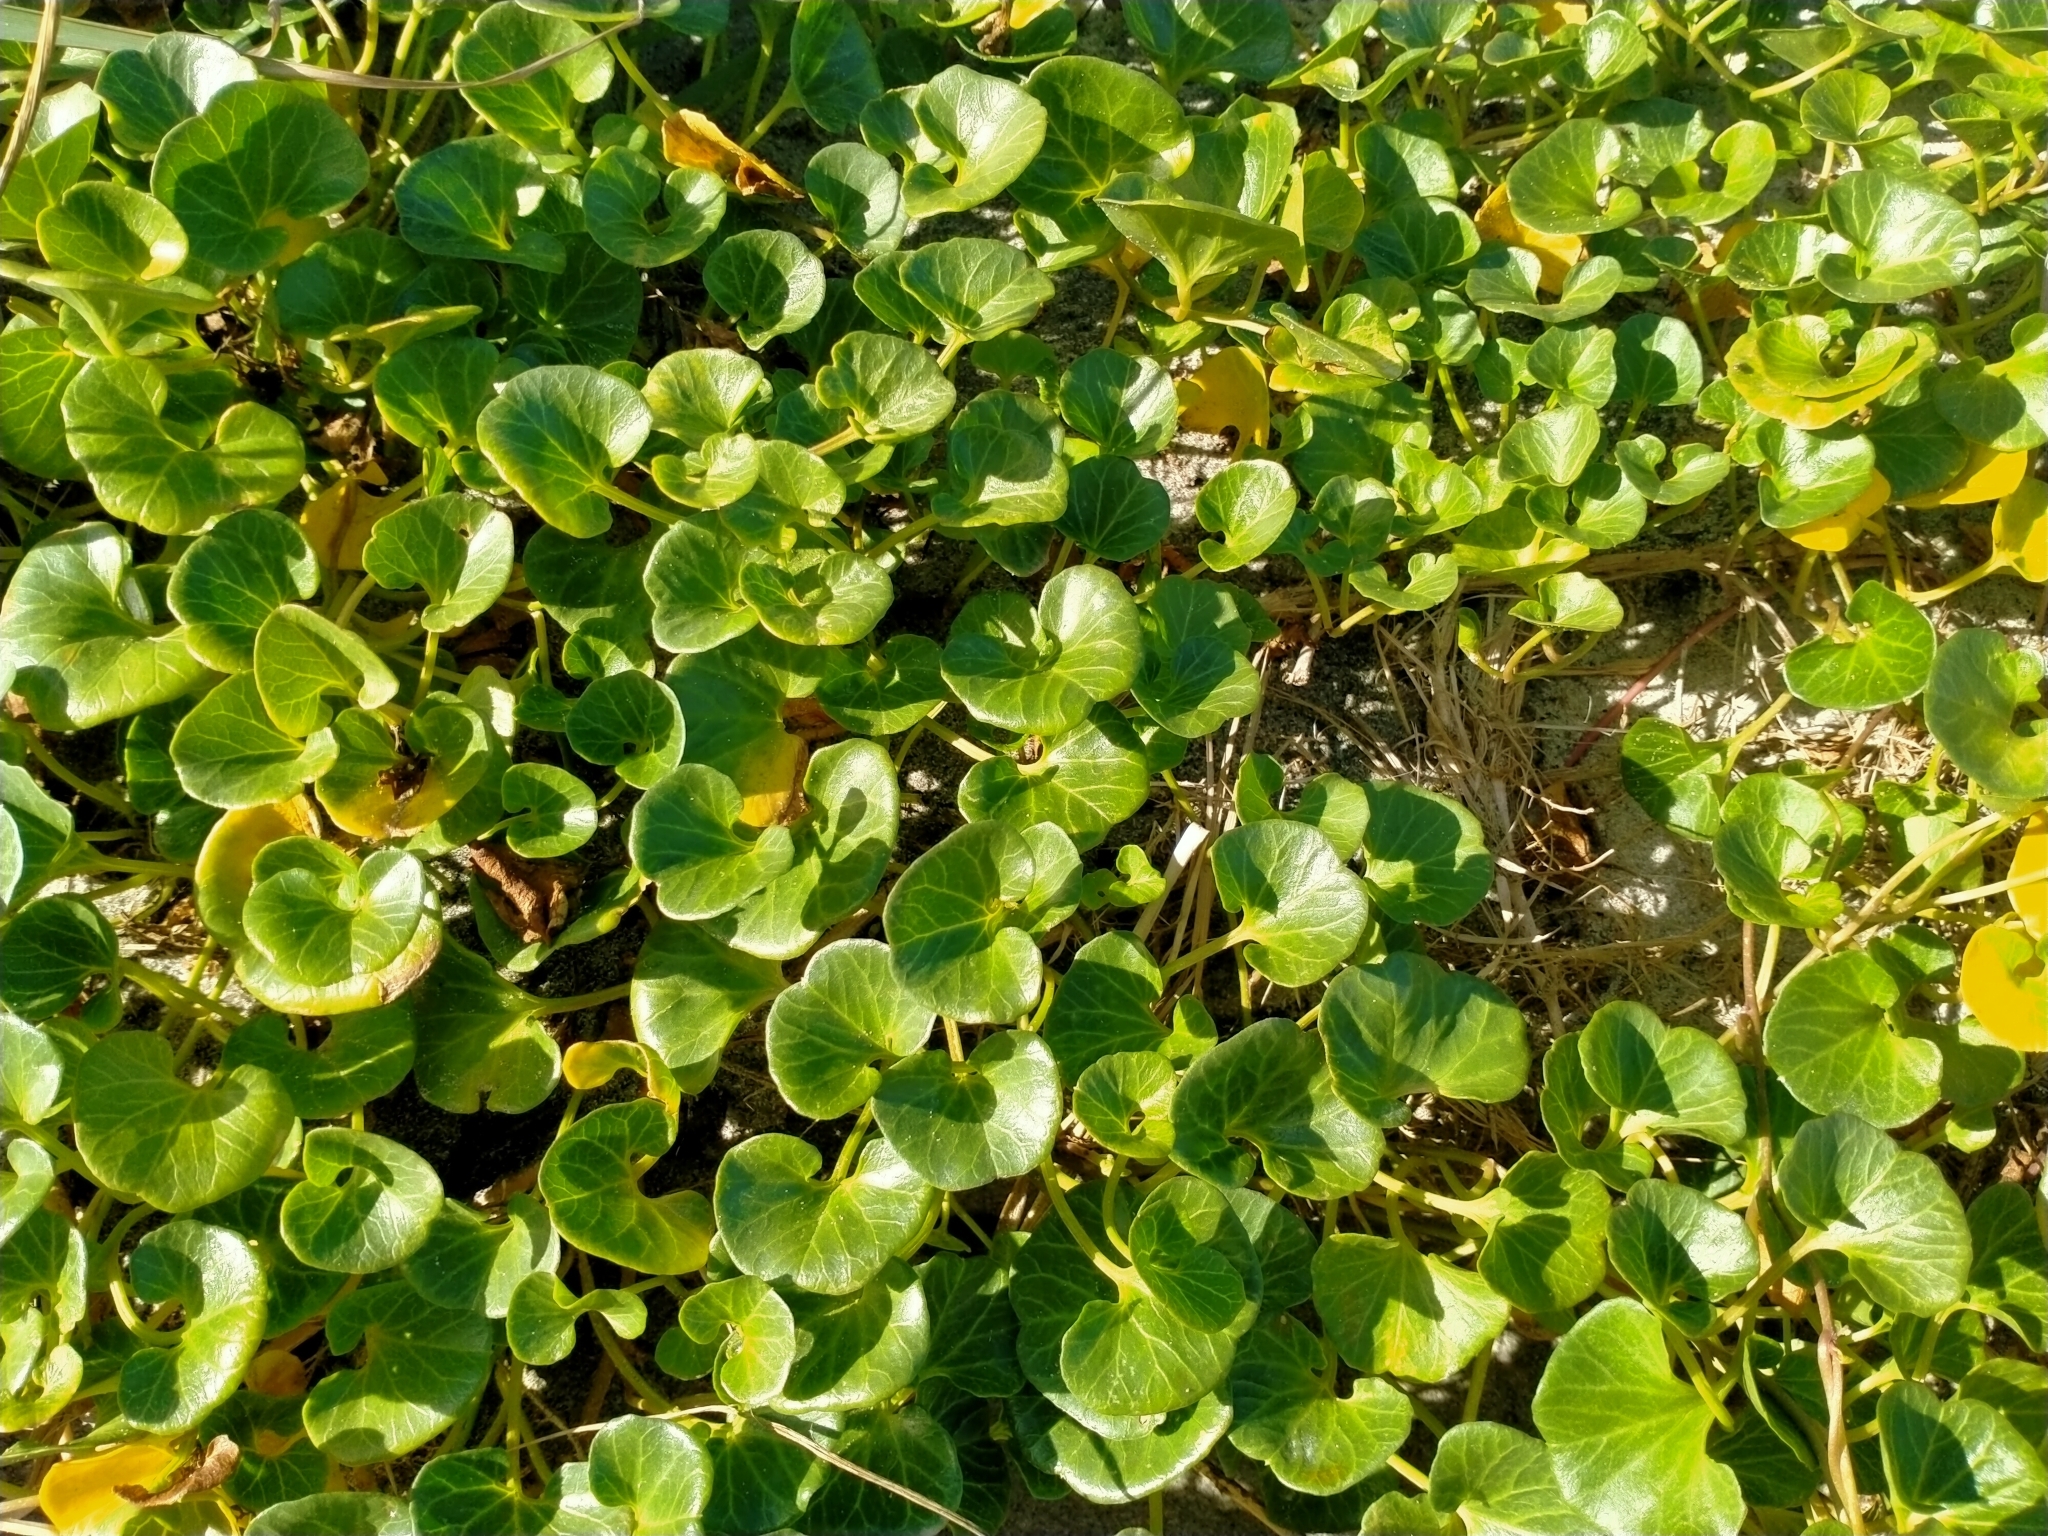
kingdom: Plantae
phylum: Tracheophyta
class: Magnoliopsida
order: Solanales
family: Convolvulaceae
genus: Calystegia
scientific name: Calystegia soldanella
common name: Sea bindweed
